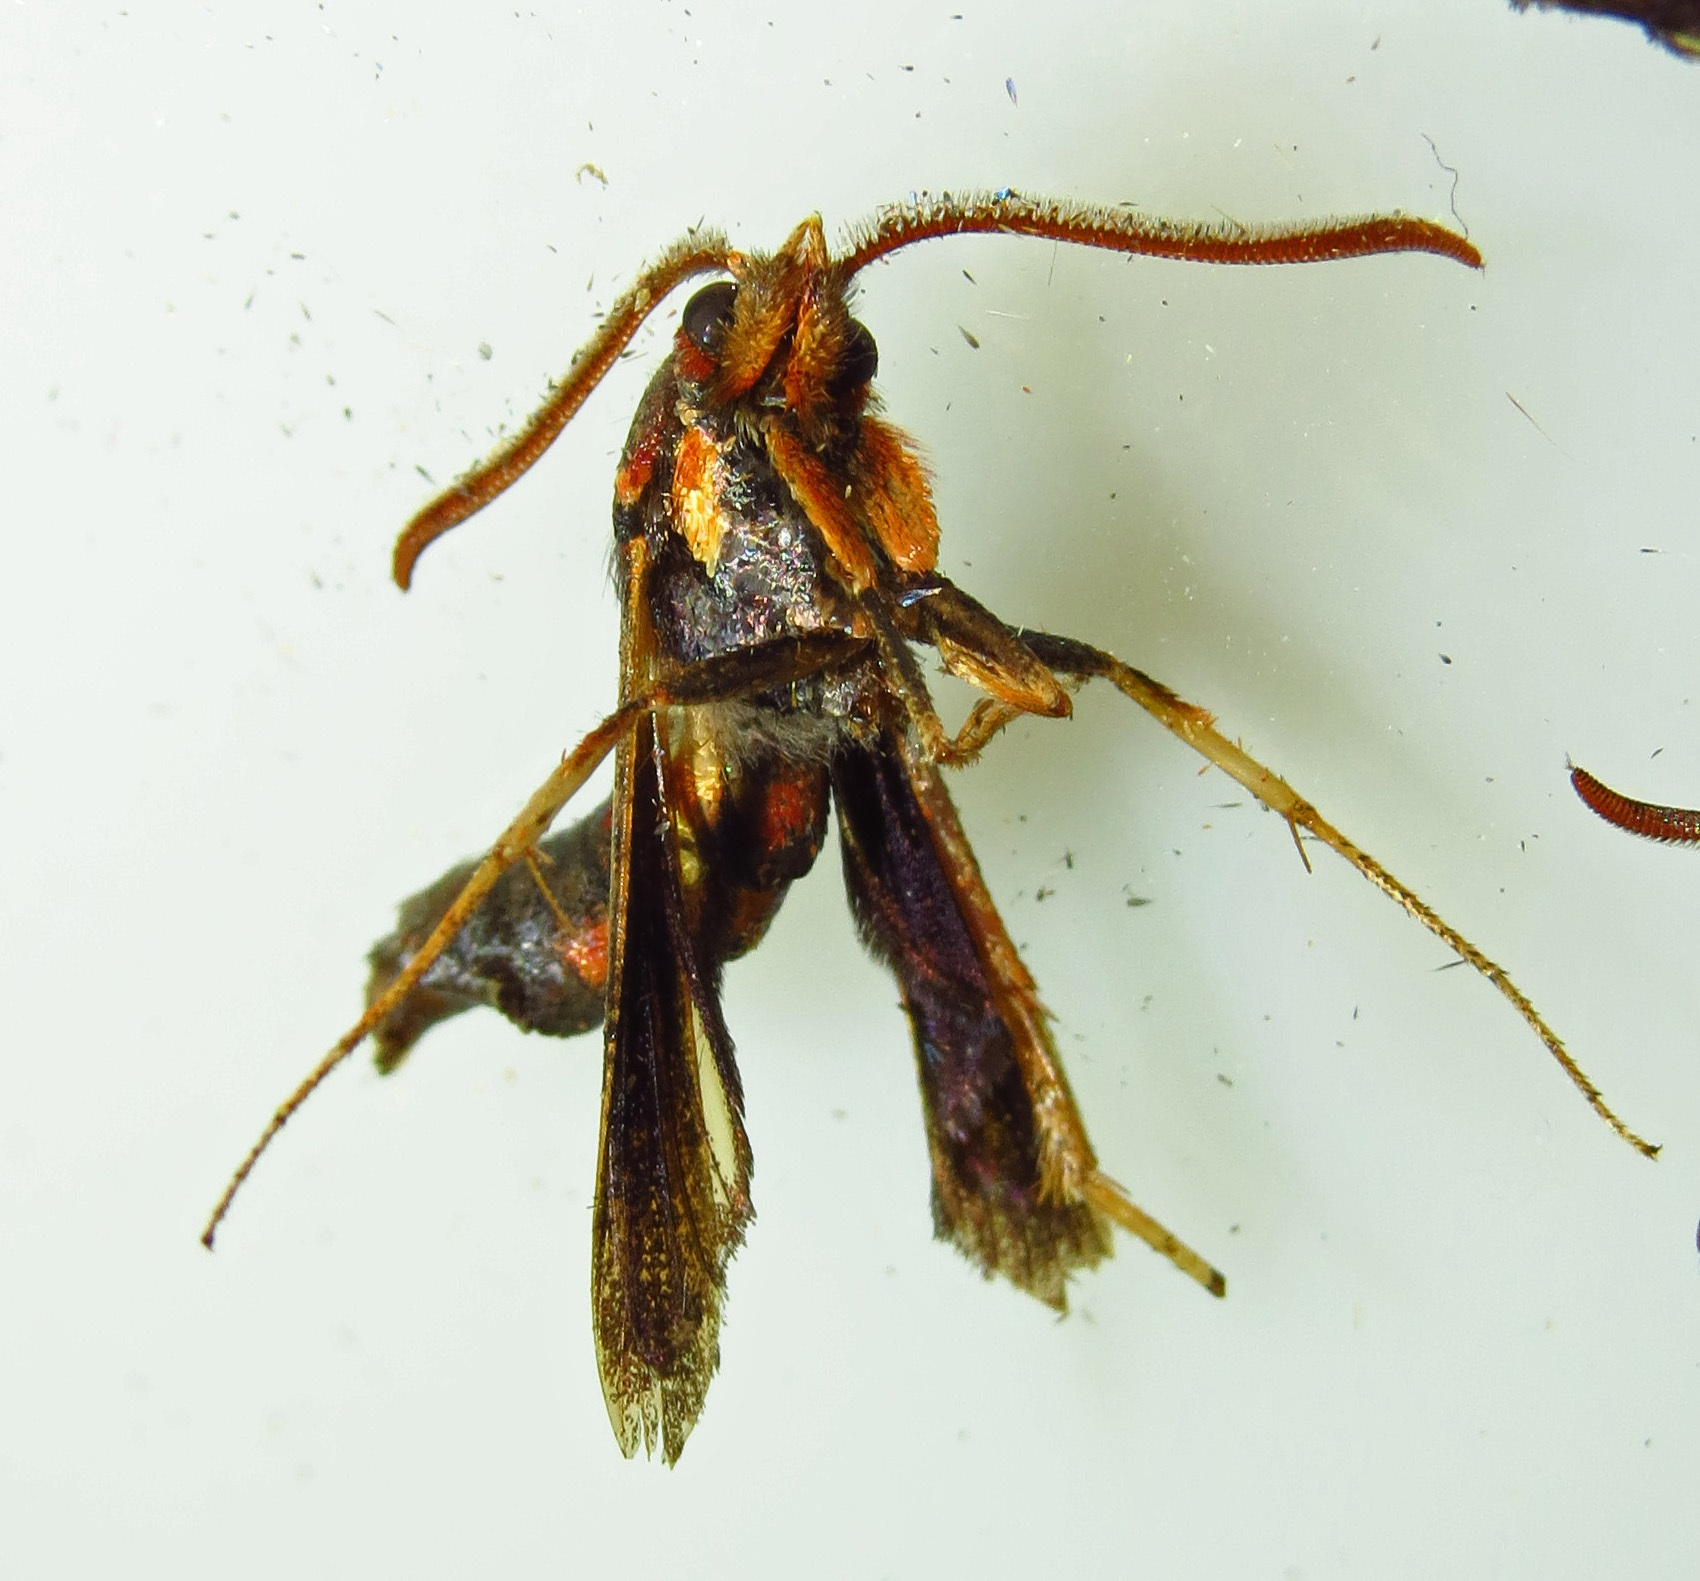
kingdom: Animalia
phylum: Arthropoda
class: Insecta
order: Lepidoptera
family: Sesiidae
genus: Podosesia
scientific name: Podosesia syringae
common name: Lilac borer moth
